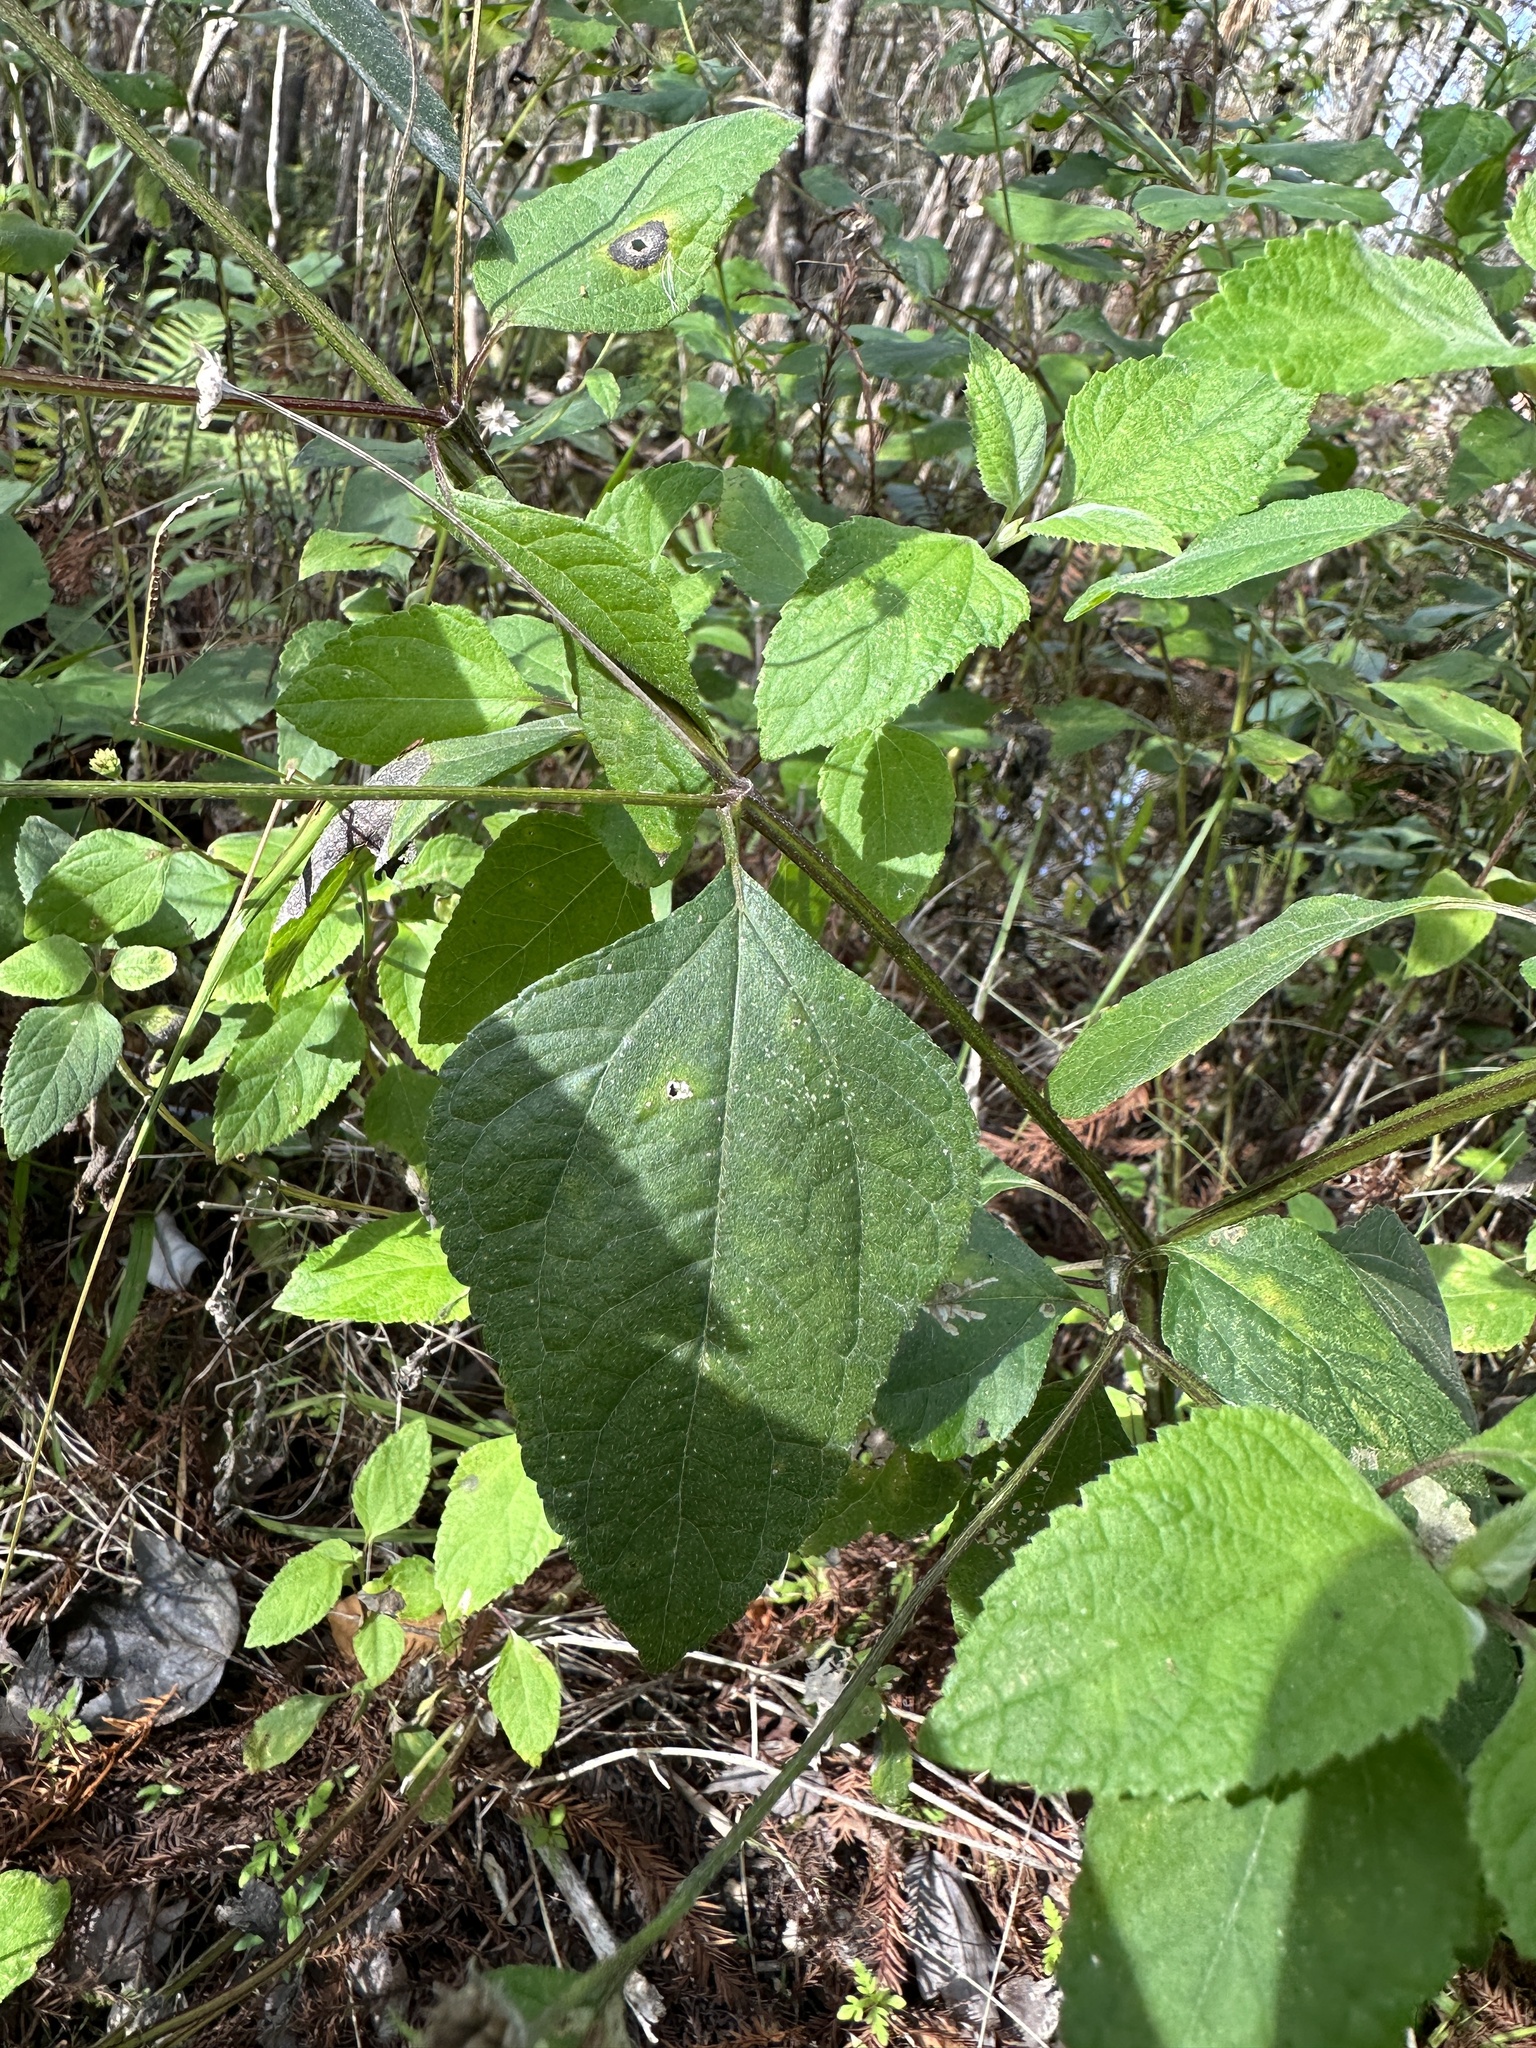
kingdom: Plantae
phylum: Tracheophyta
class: Magnoliopsida
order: Asterales
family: Asteraceae
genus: Melanthera
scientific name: Melanthera nivea
